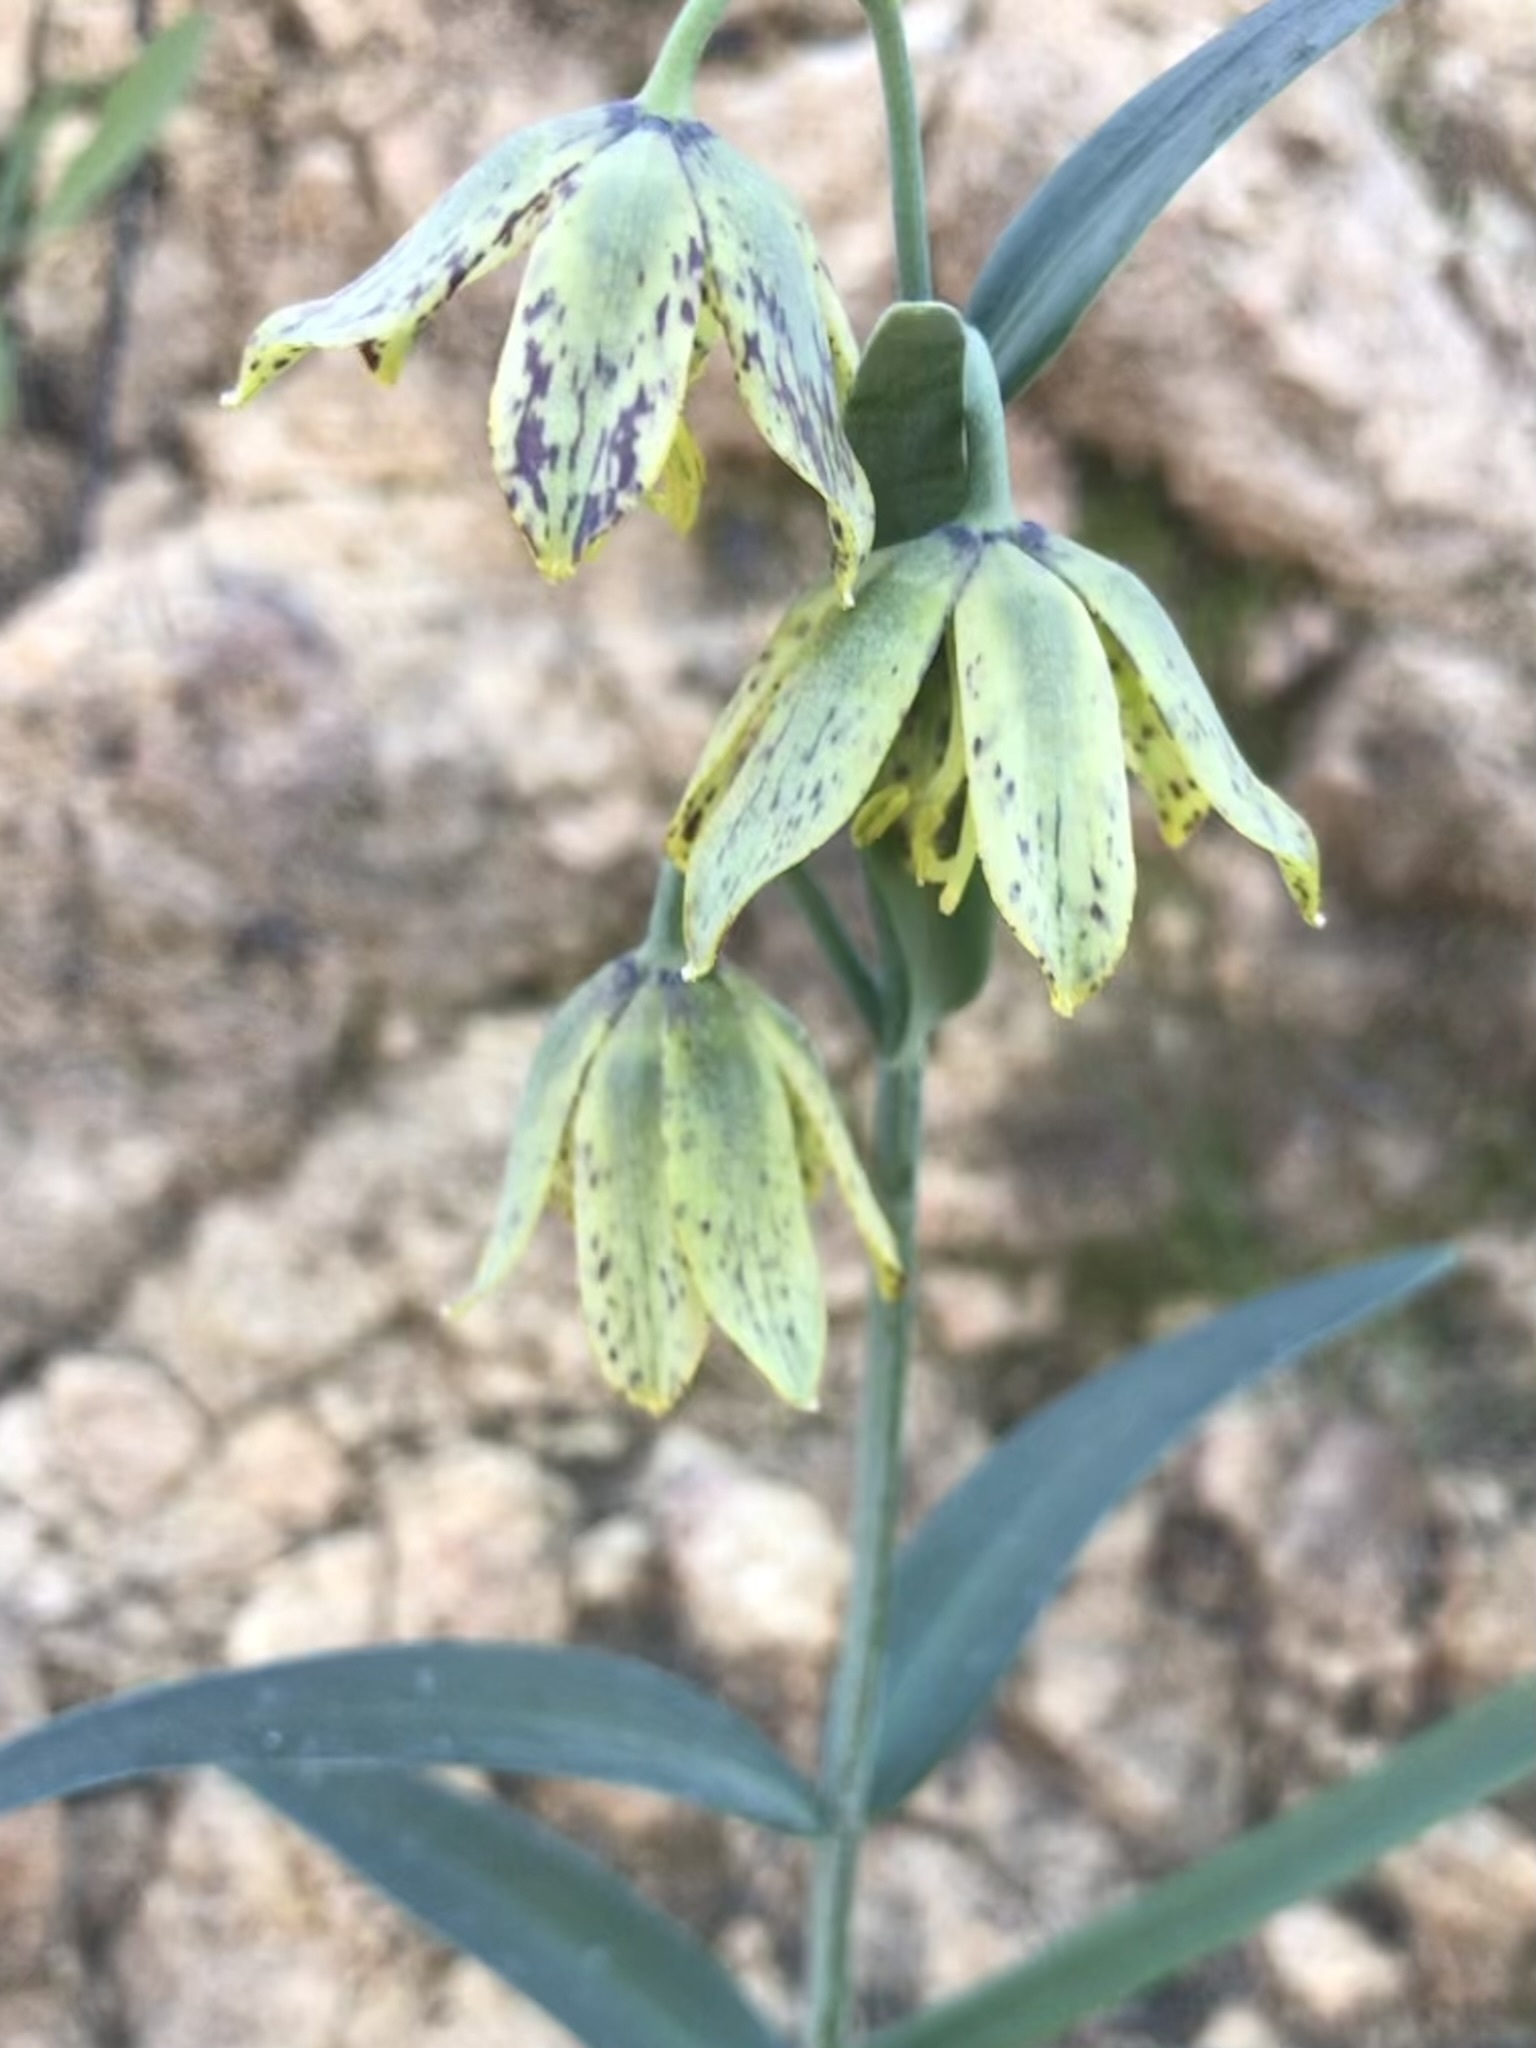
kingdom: Plantae
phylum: Tracheophyta
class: Liliopsida
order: Liliales
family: Liliaceae
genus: Fritillaria
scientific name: Fritillaria affinis
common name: Ojai fritillary
